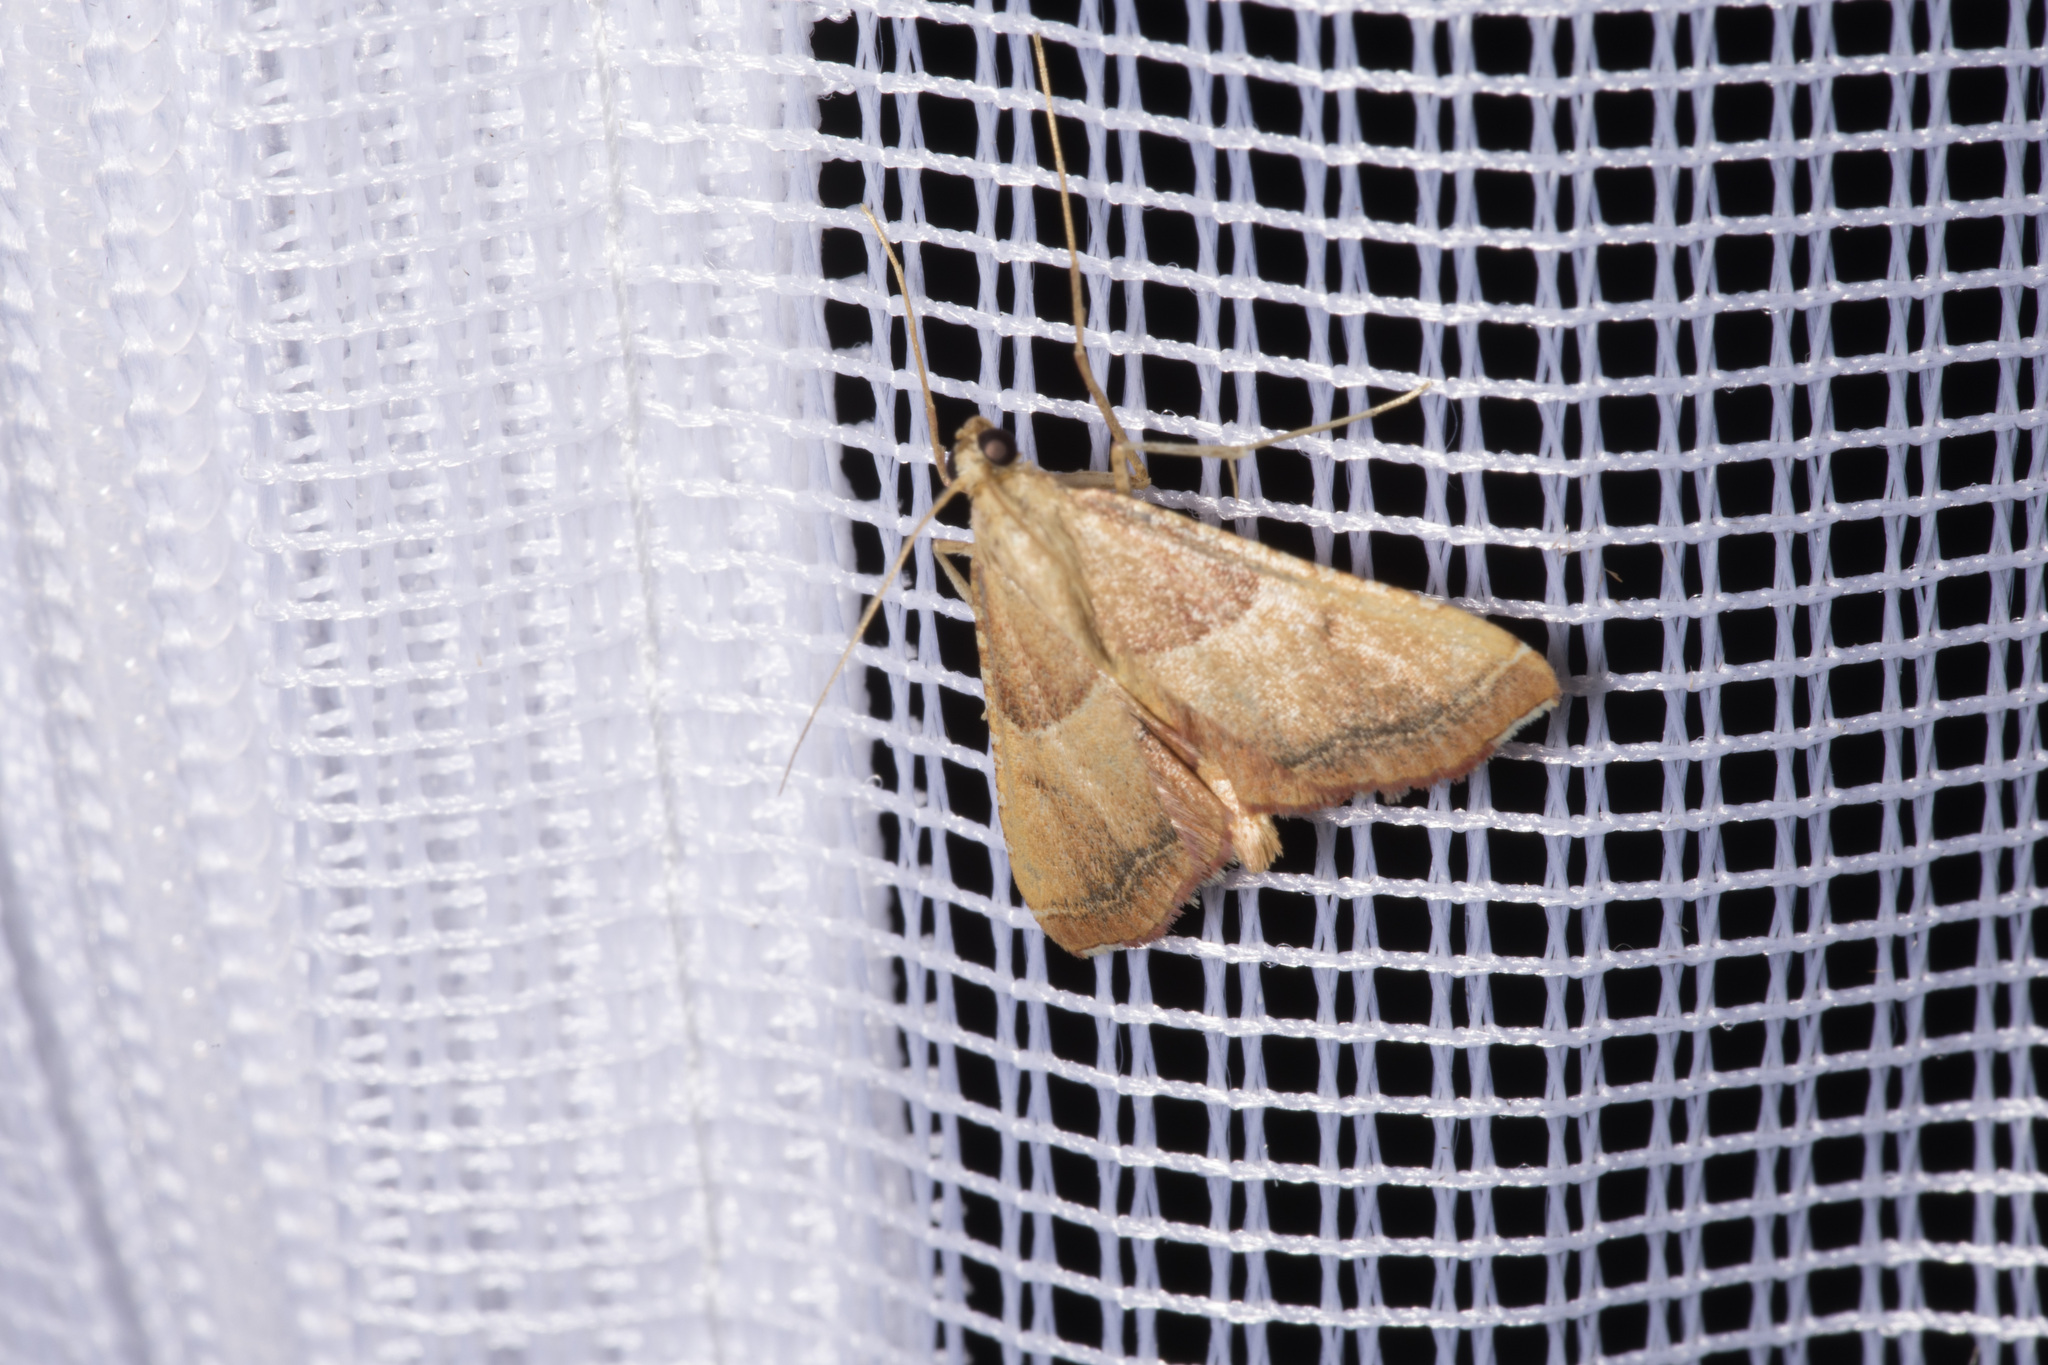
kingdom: Animalia
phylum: Arthropoda
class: Insecta
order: Lepidoptera
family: Pyralidae
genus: Endotricha
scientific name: Endotricha flammealis
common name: Rosy tabby
